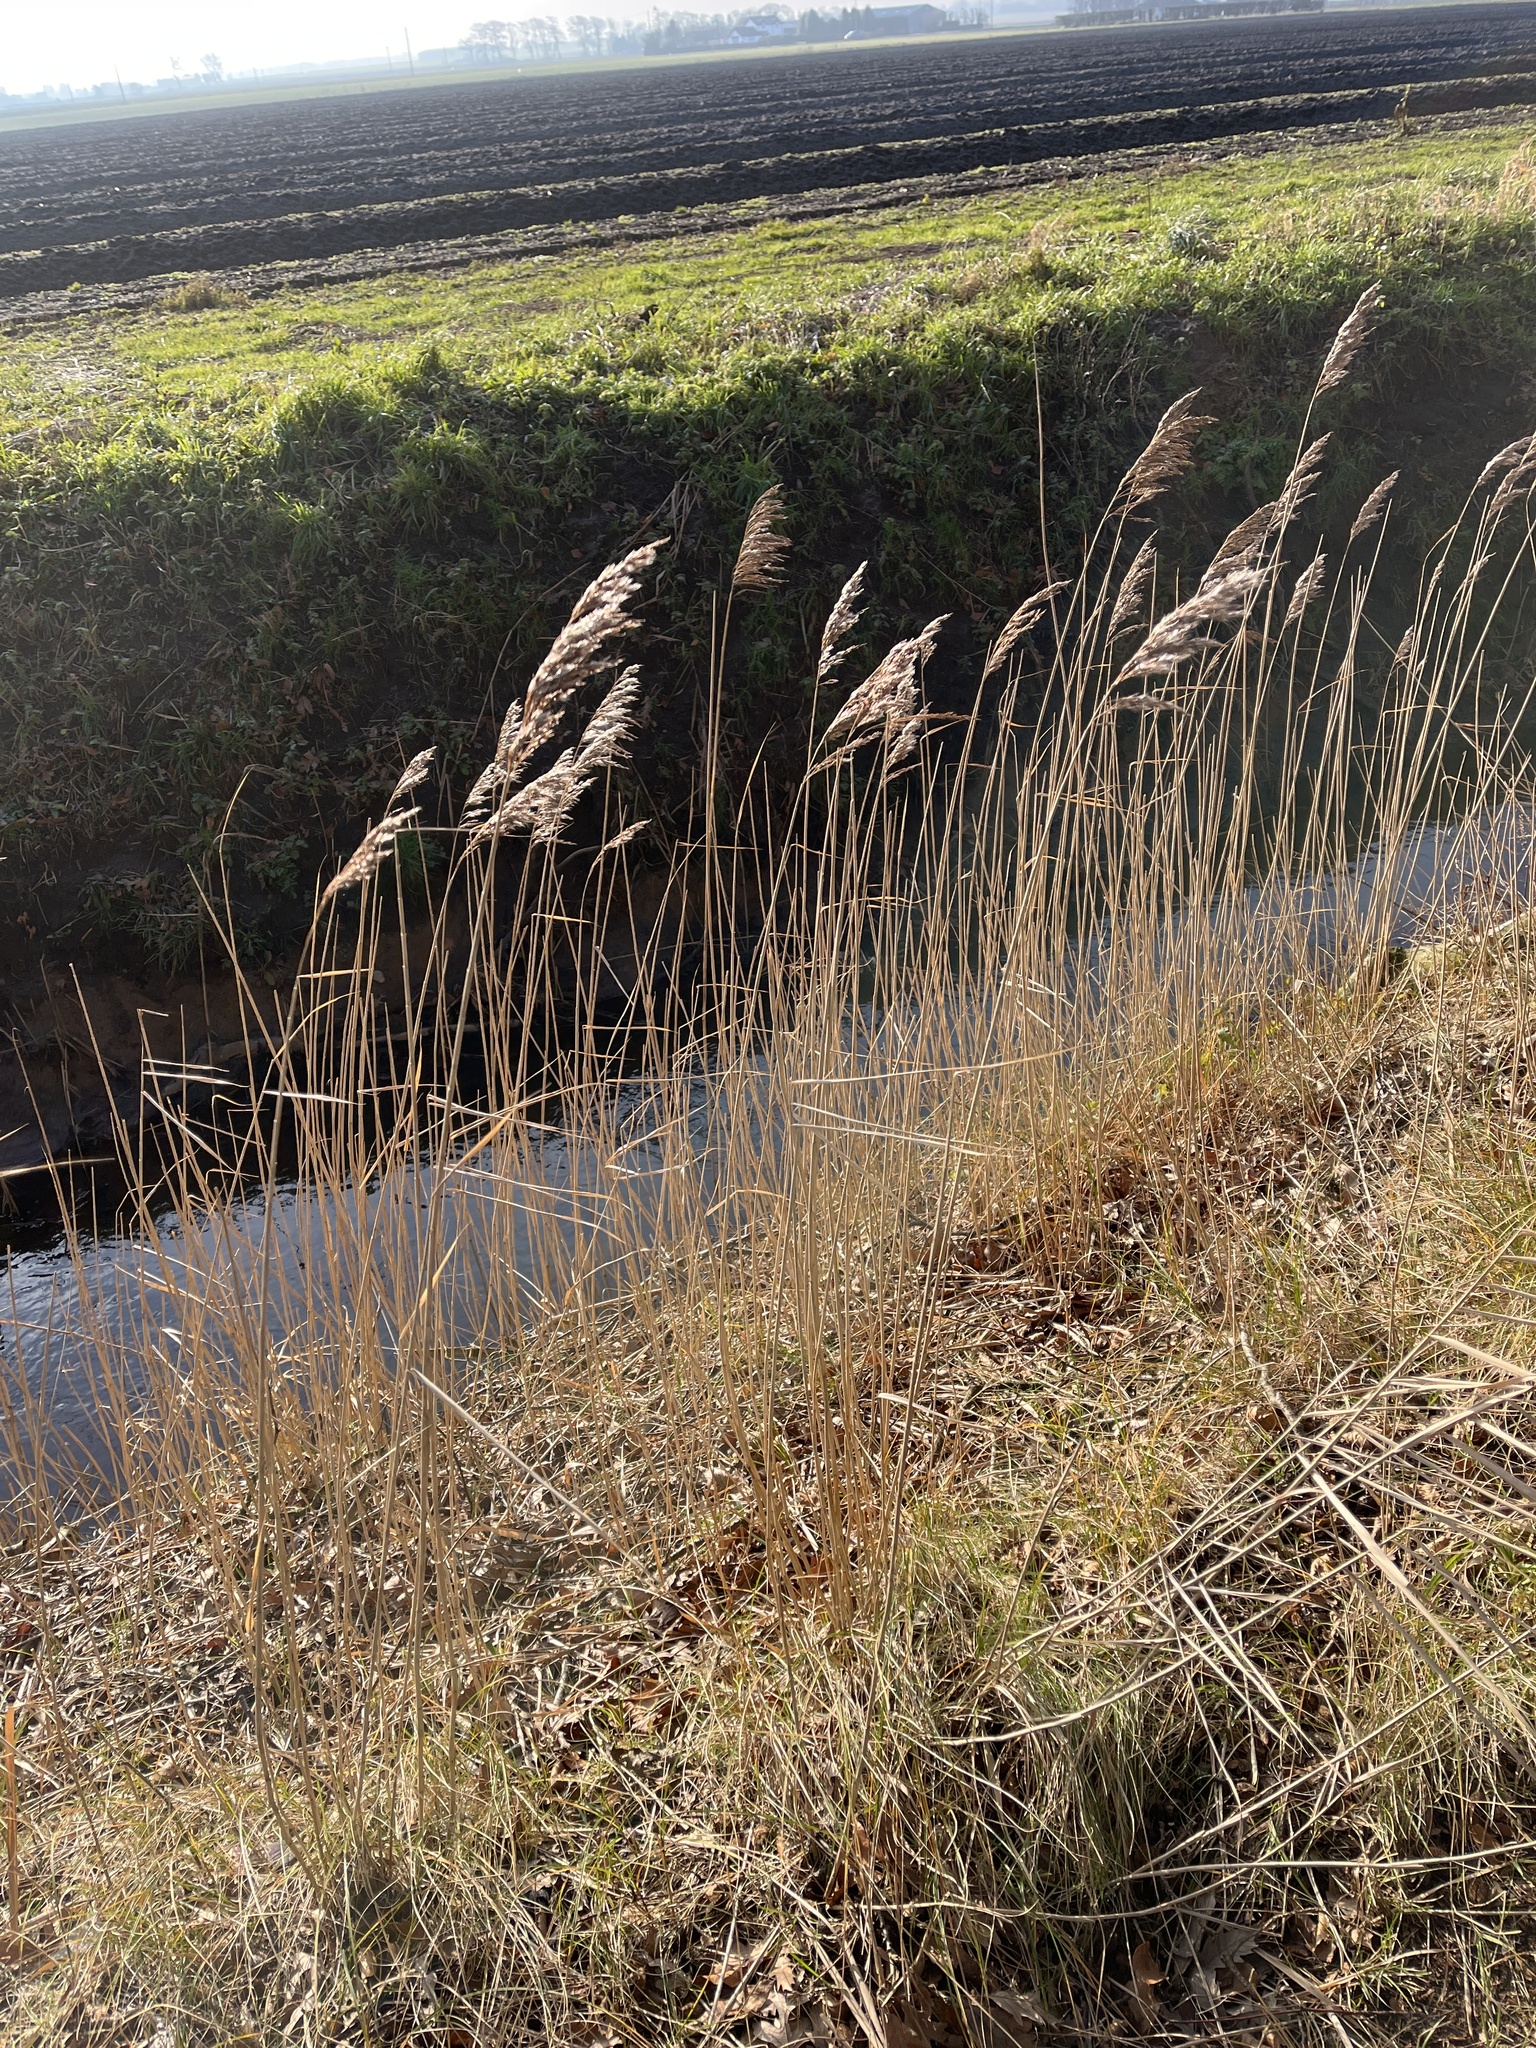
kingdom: Plantae
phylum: Tracheophyta
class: Liliopsida
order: Poales
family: Poaceae
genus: Phragmites
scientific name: Phragmites australis
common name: Common reed
